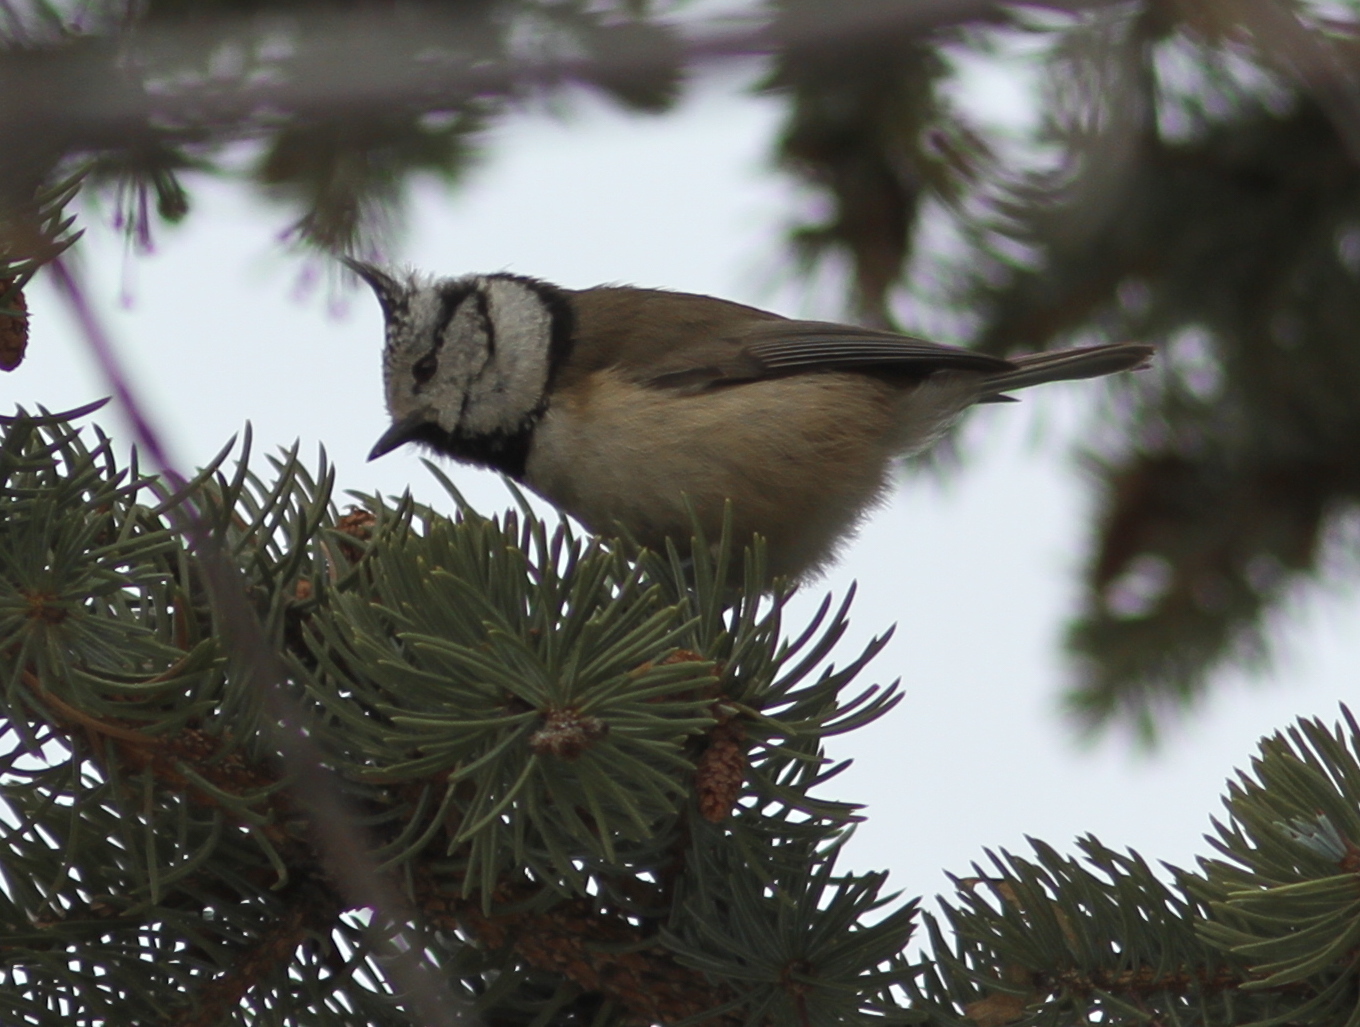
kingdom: Animalia
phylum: Chordata
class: Aves
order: Passeriformes
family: Paridae
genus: Lophophanes
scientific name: Lophophanes cristatus
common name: European crested tit
